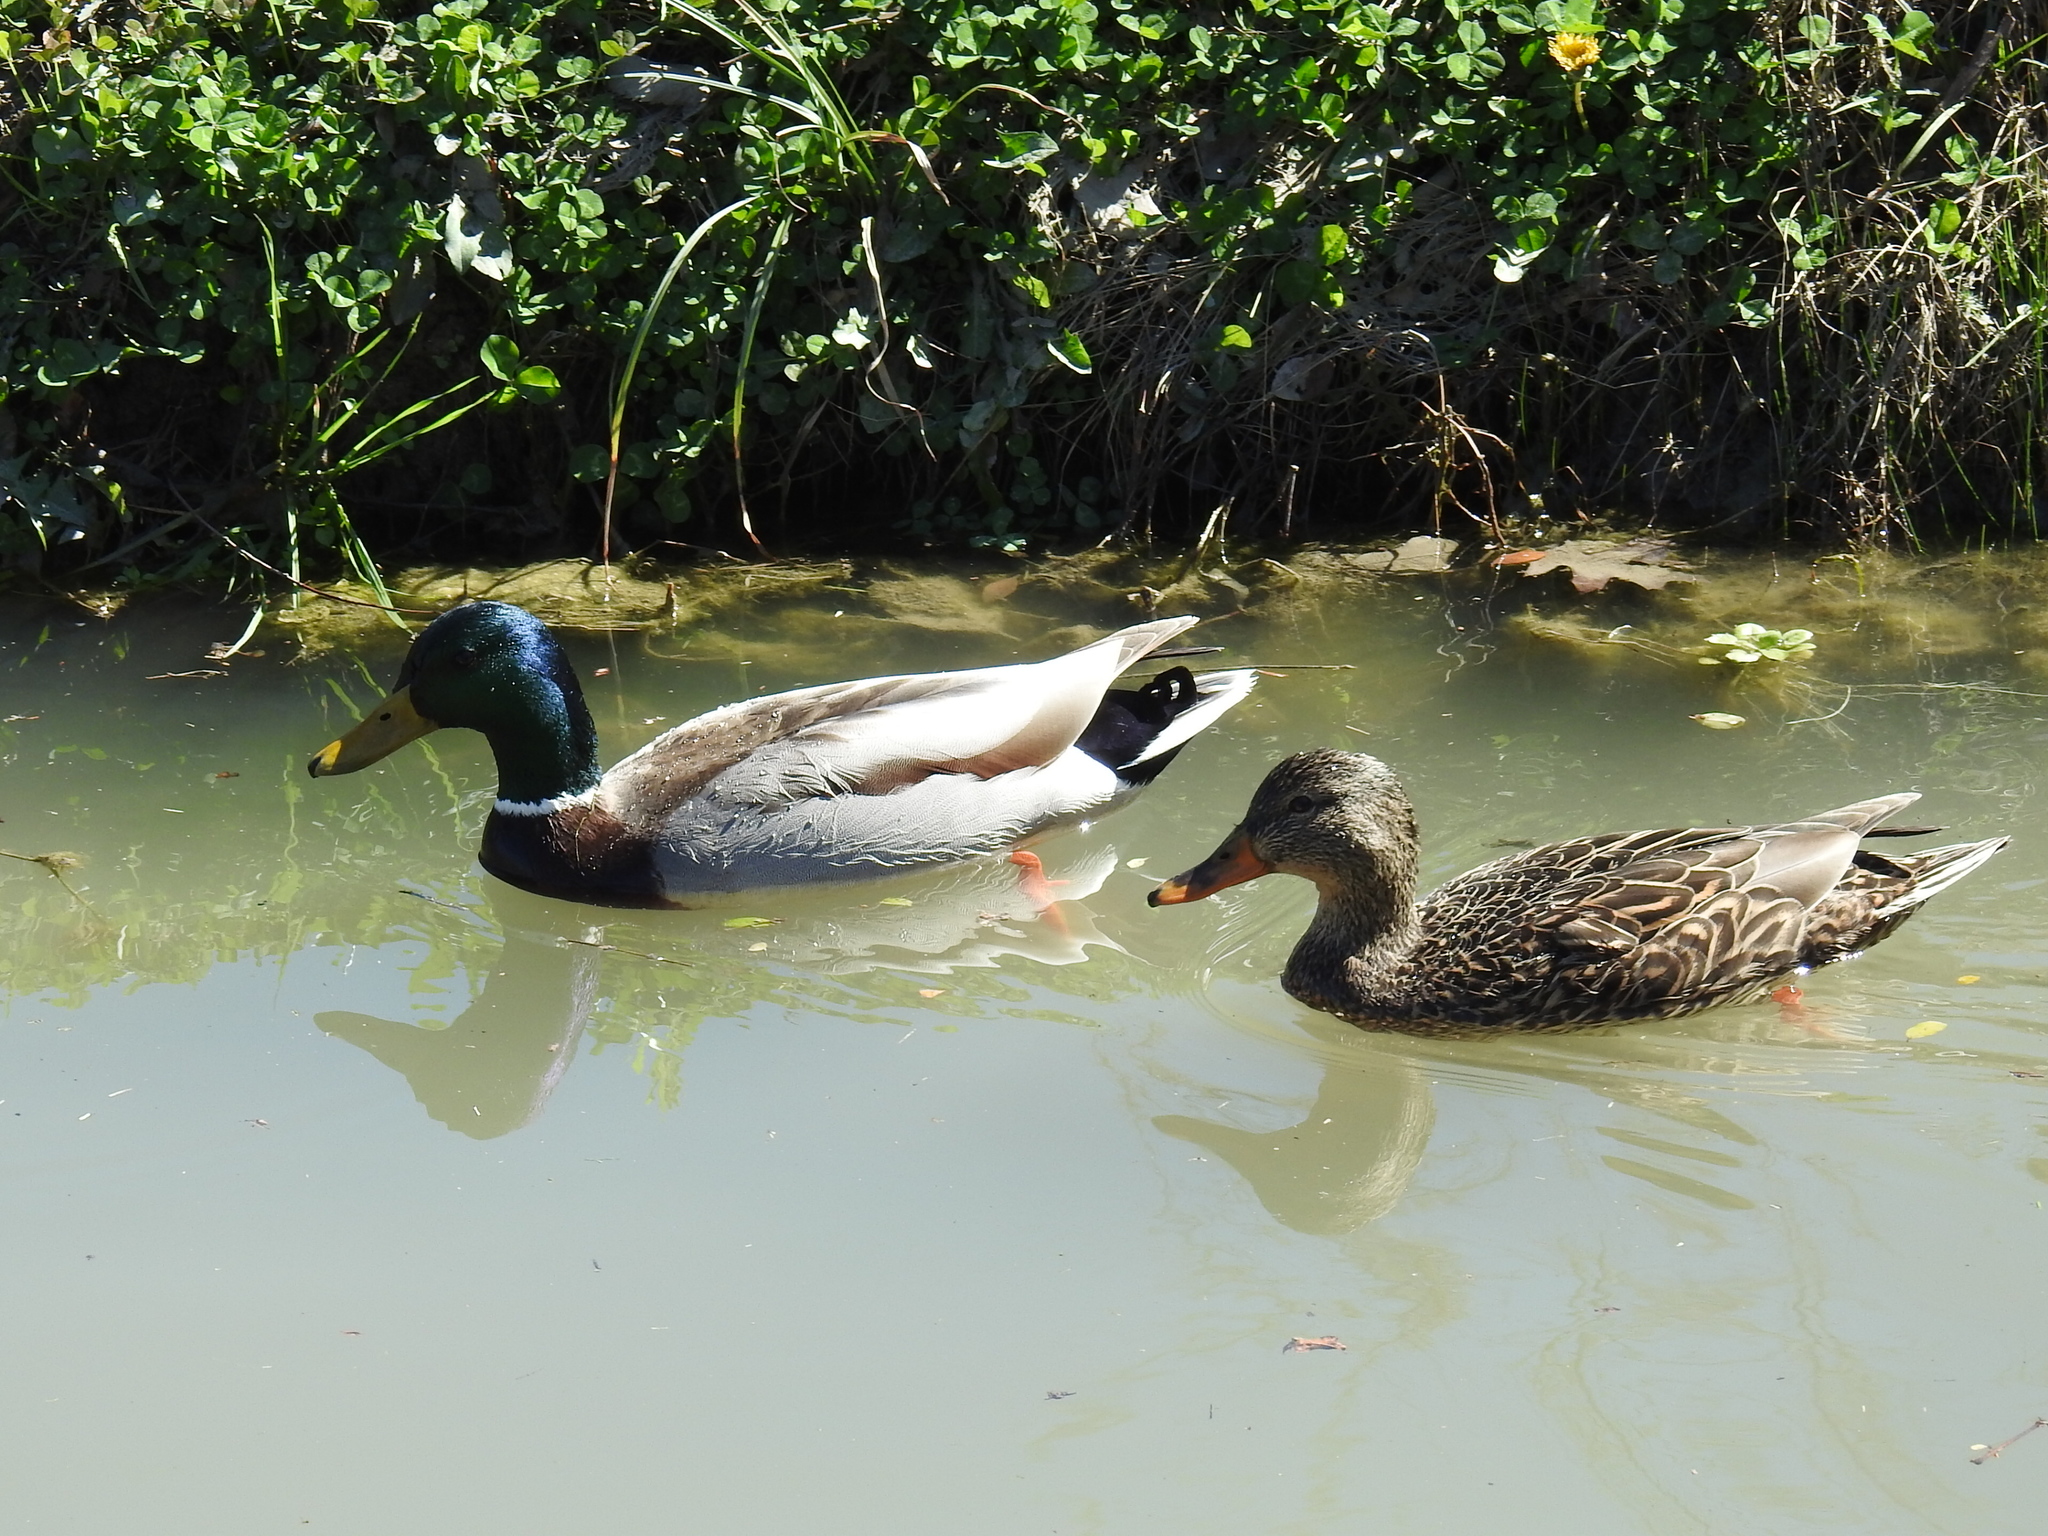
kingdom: Animalia
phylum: Chordata
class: Aves
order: Anseriformes
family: Anatidae
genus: Anas
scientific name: Anas platyrhynchos
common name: Mallard
